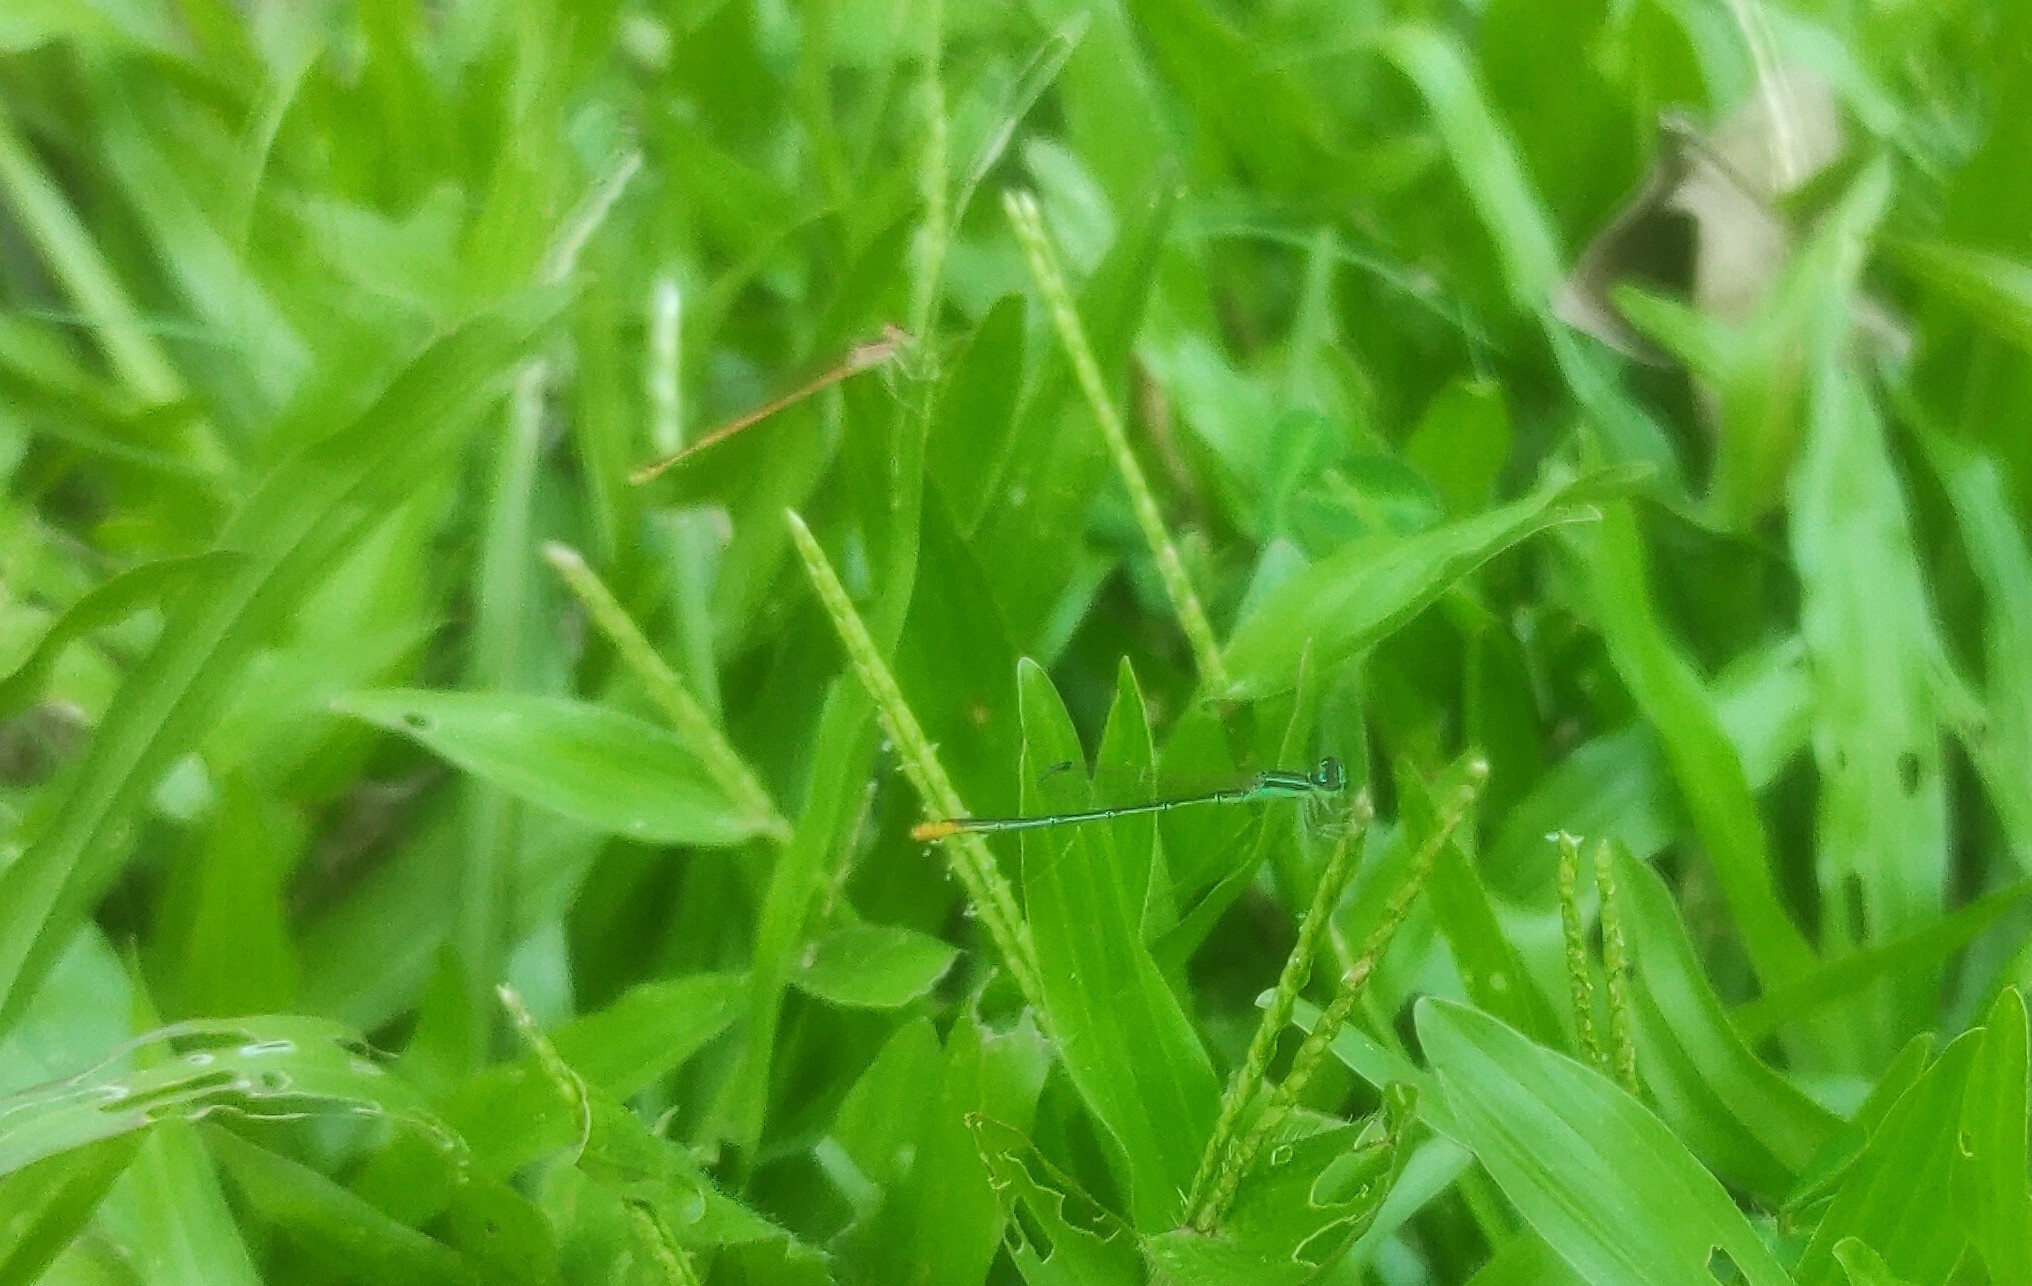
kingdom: Animalia
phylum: Arthropoda
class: Insecta
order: Odonata
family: Coenagrionidae
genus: Agriocnemis
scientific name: Agriocnemis pygmaea
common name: Pygmy wisp
